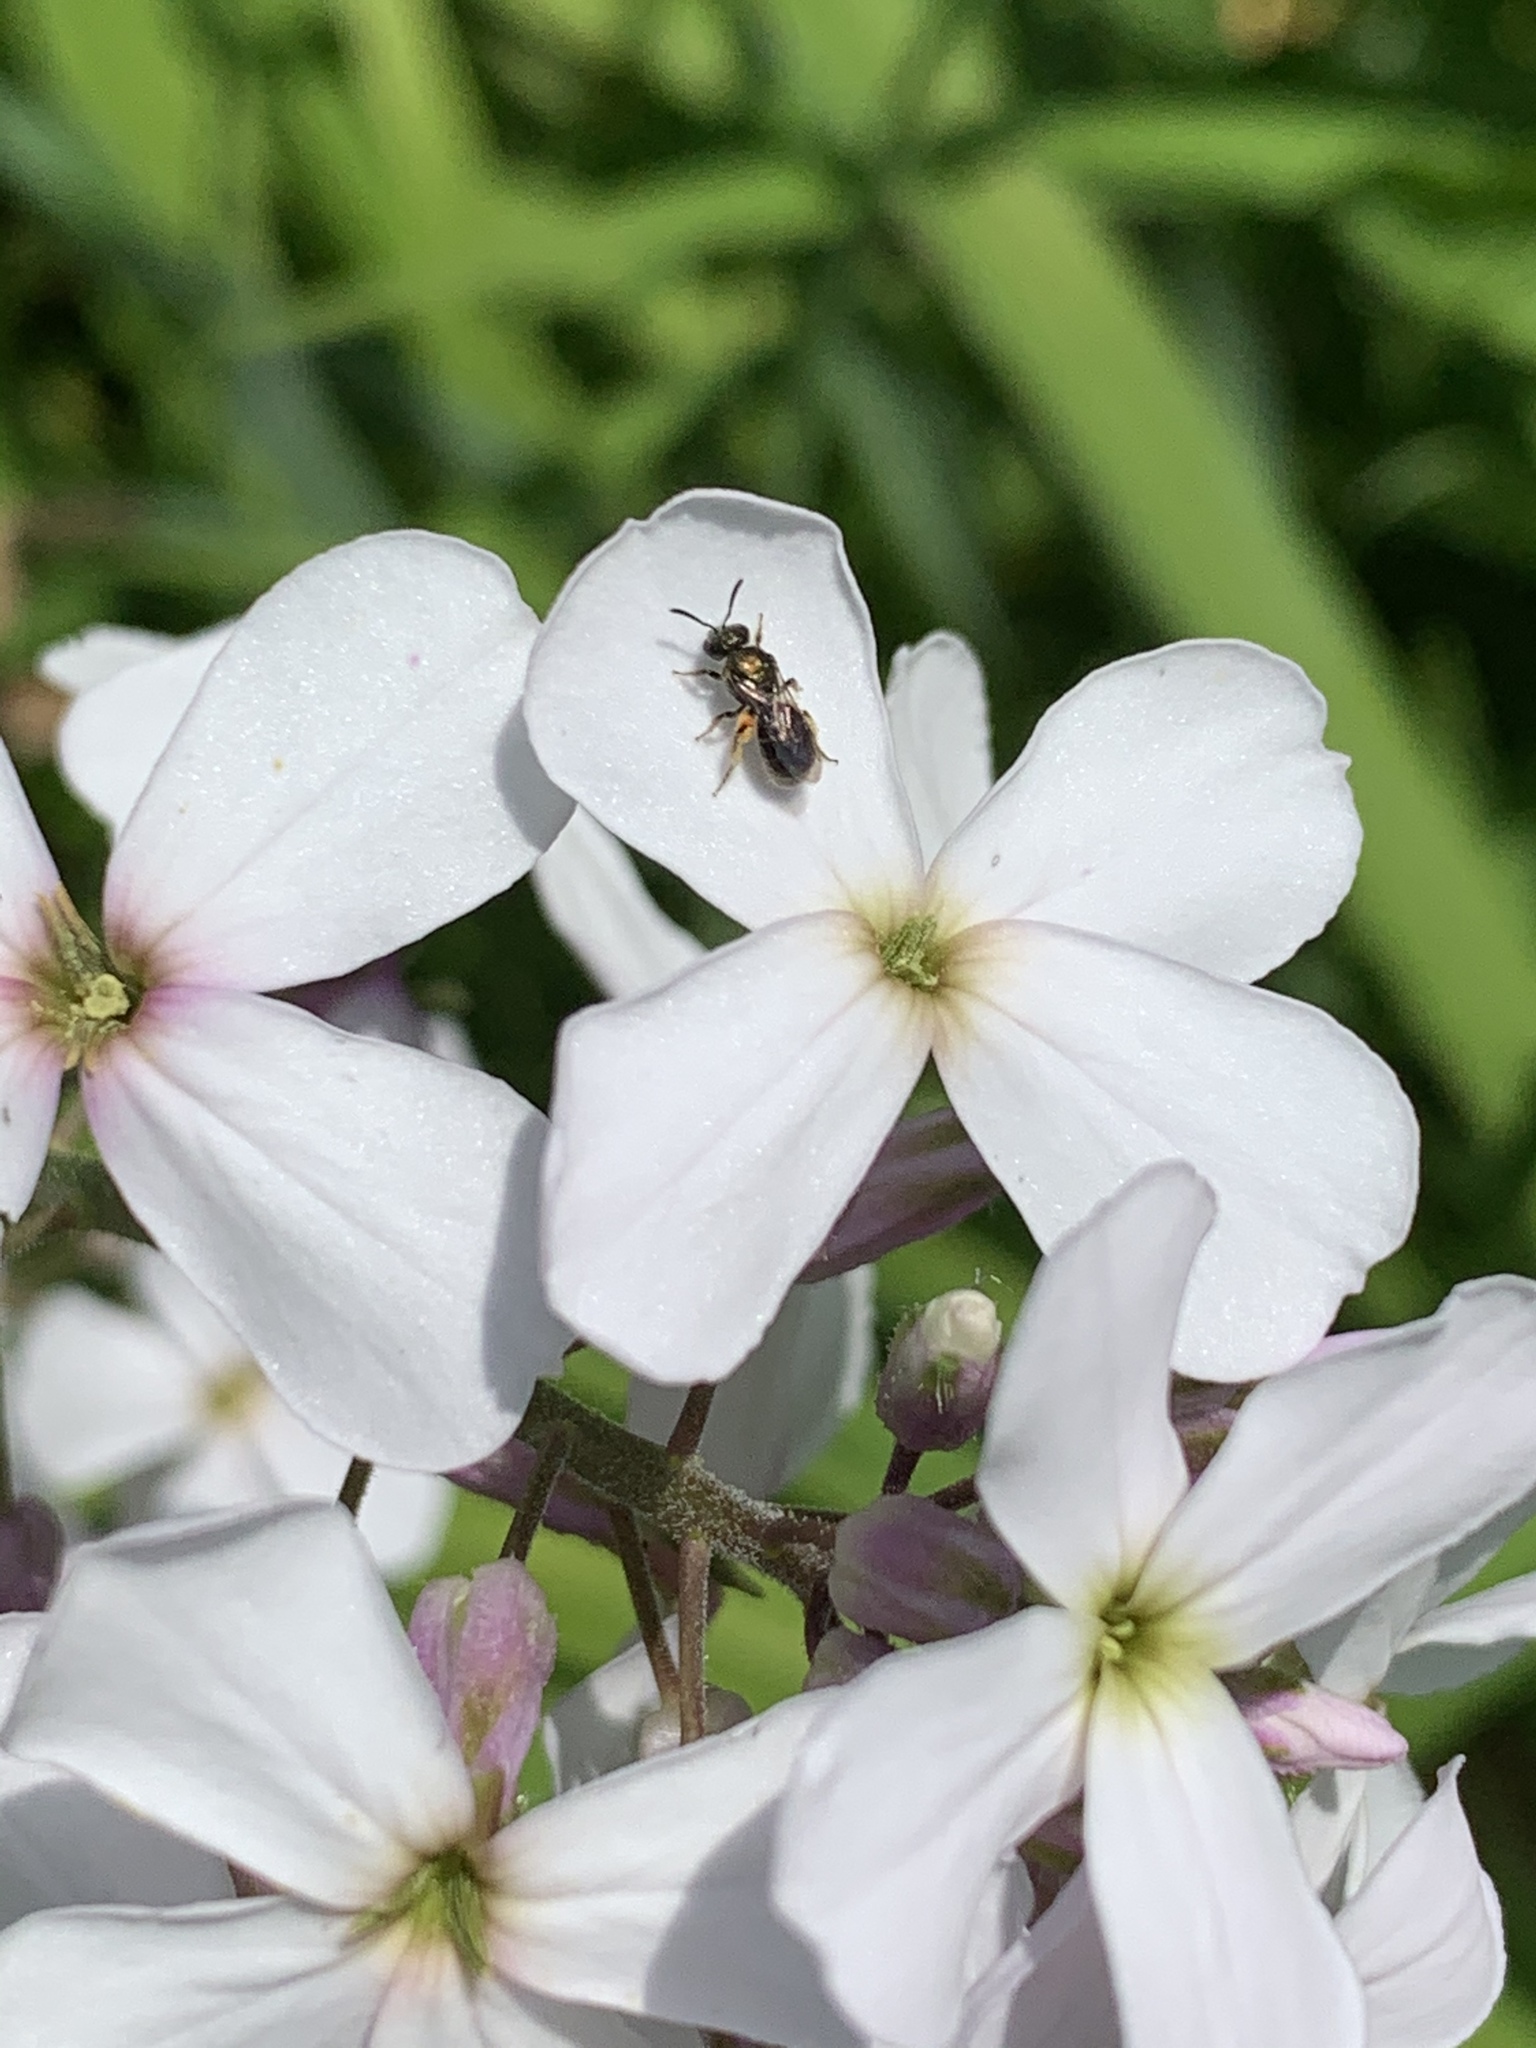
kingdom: Animalia
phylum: Arthropoda
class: Insecta
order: Hymenoptera
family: Halictidae
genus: Dialictus
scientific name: Dialictus
